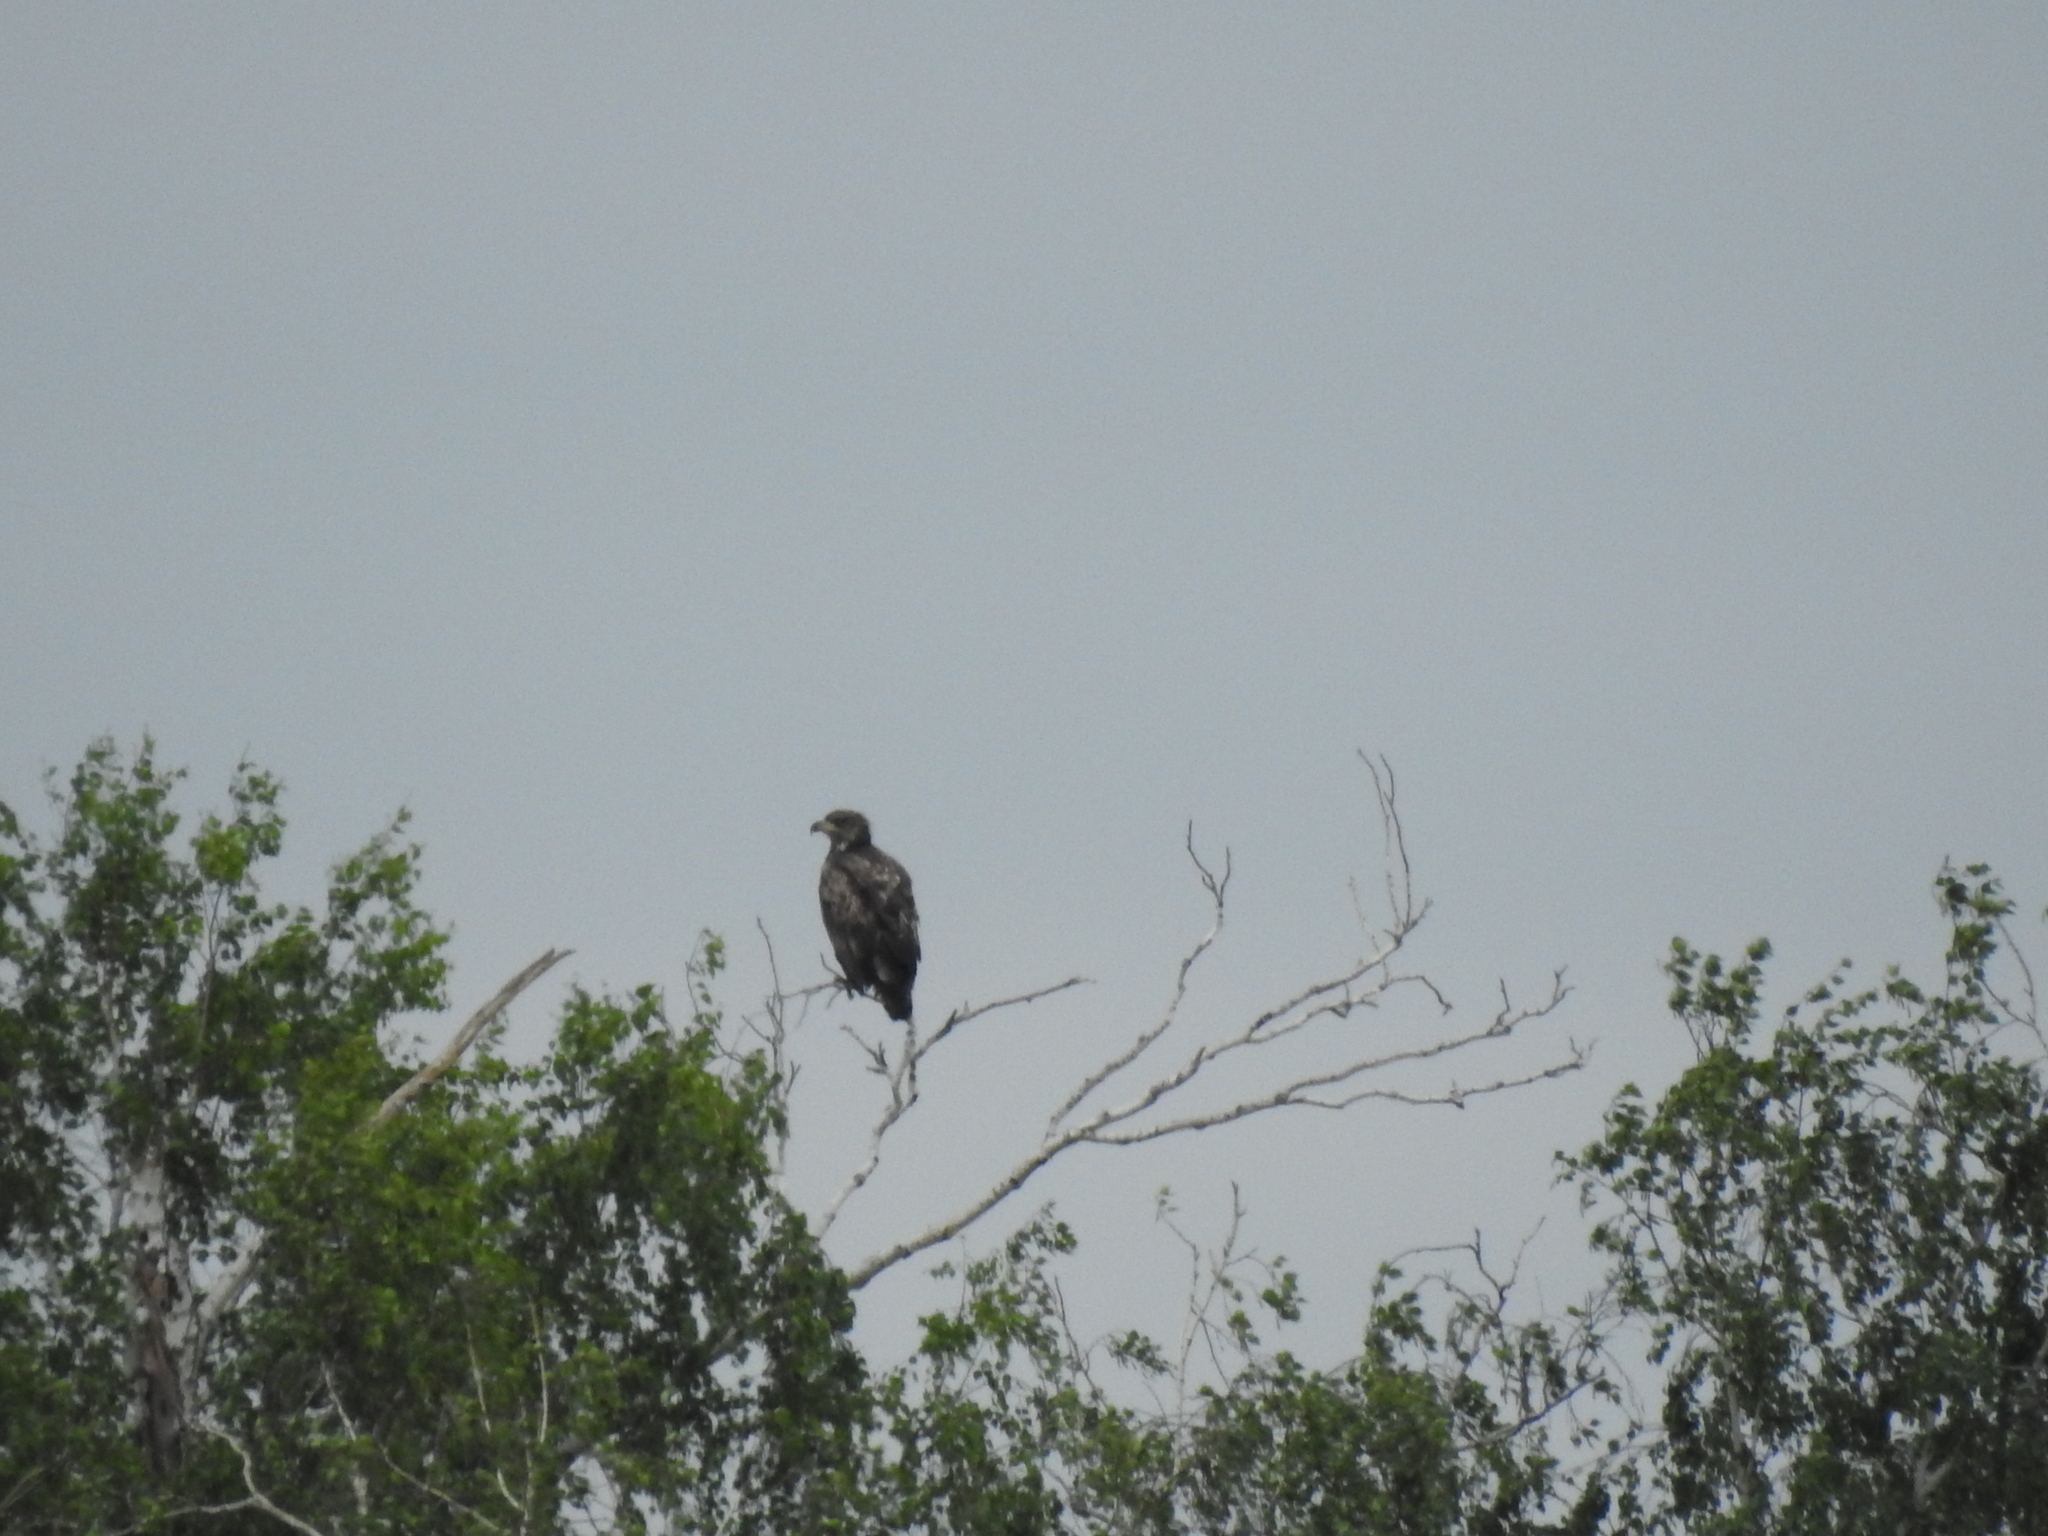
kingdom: Animalia
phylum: Chordata
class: Aves
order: Accipitriformes
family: Accipitridae
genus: Haliaeetus
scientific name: Haliaeetus albicilla
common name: White-tailed eagle
